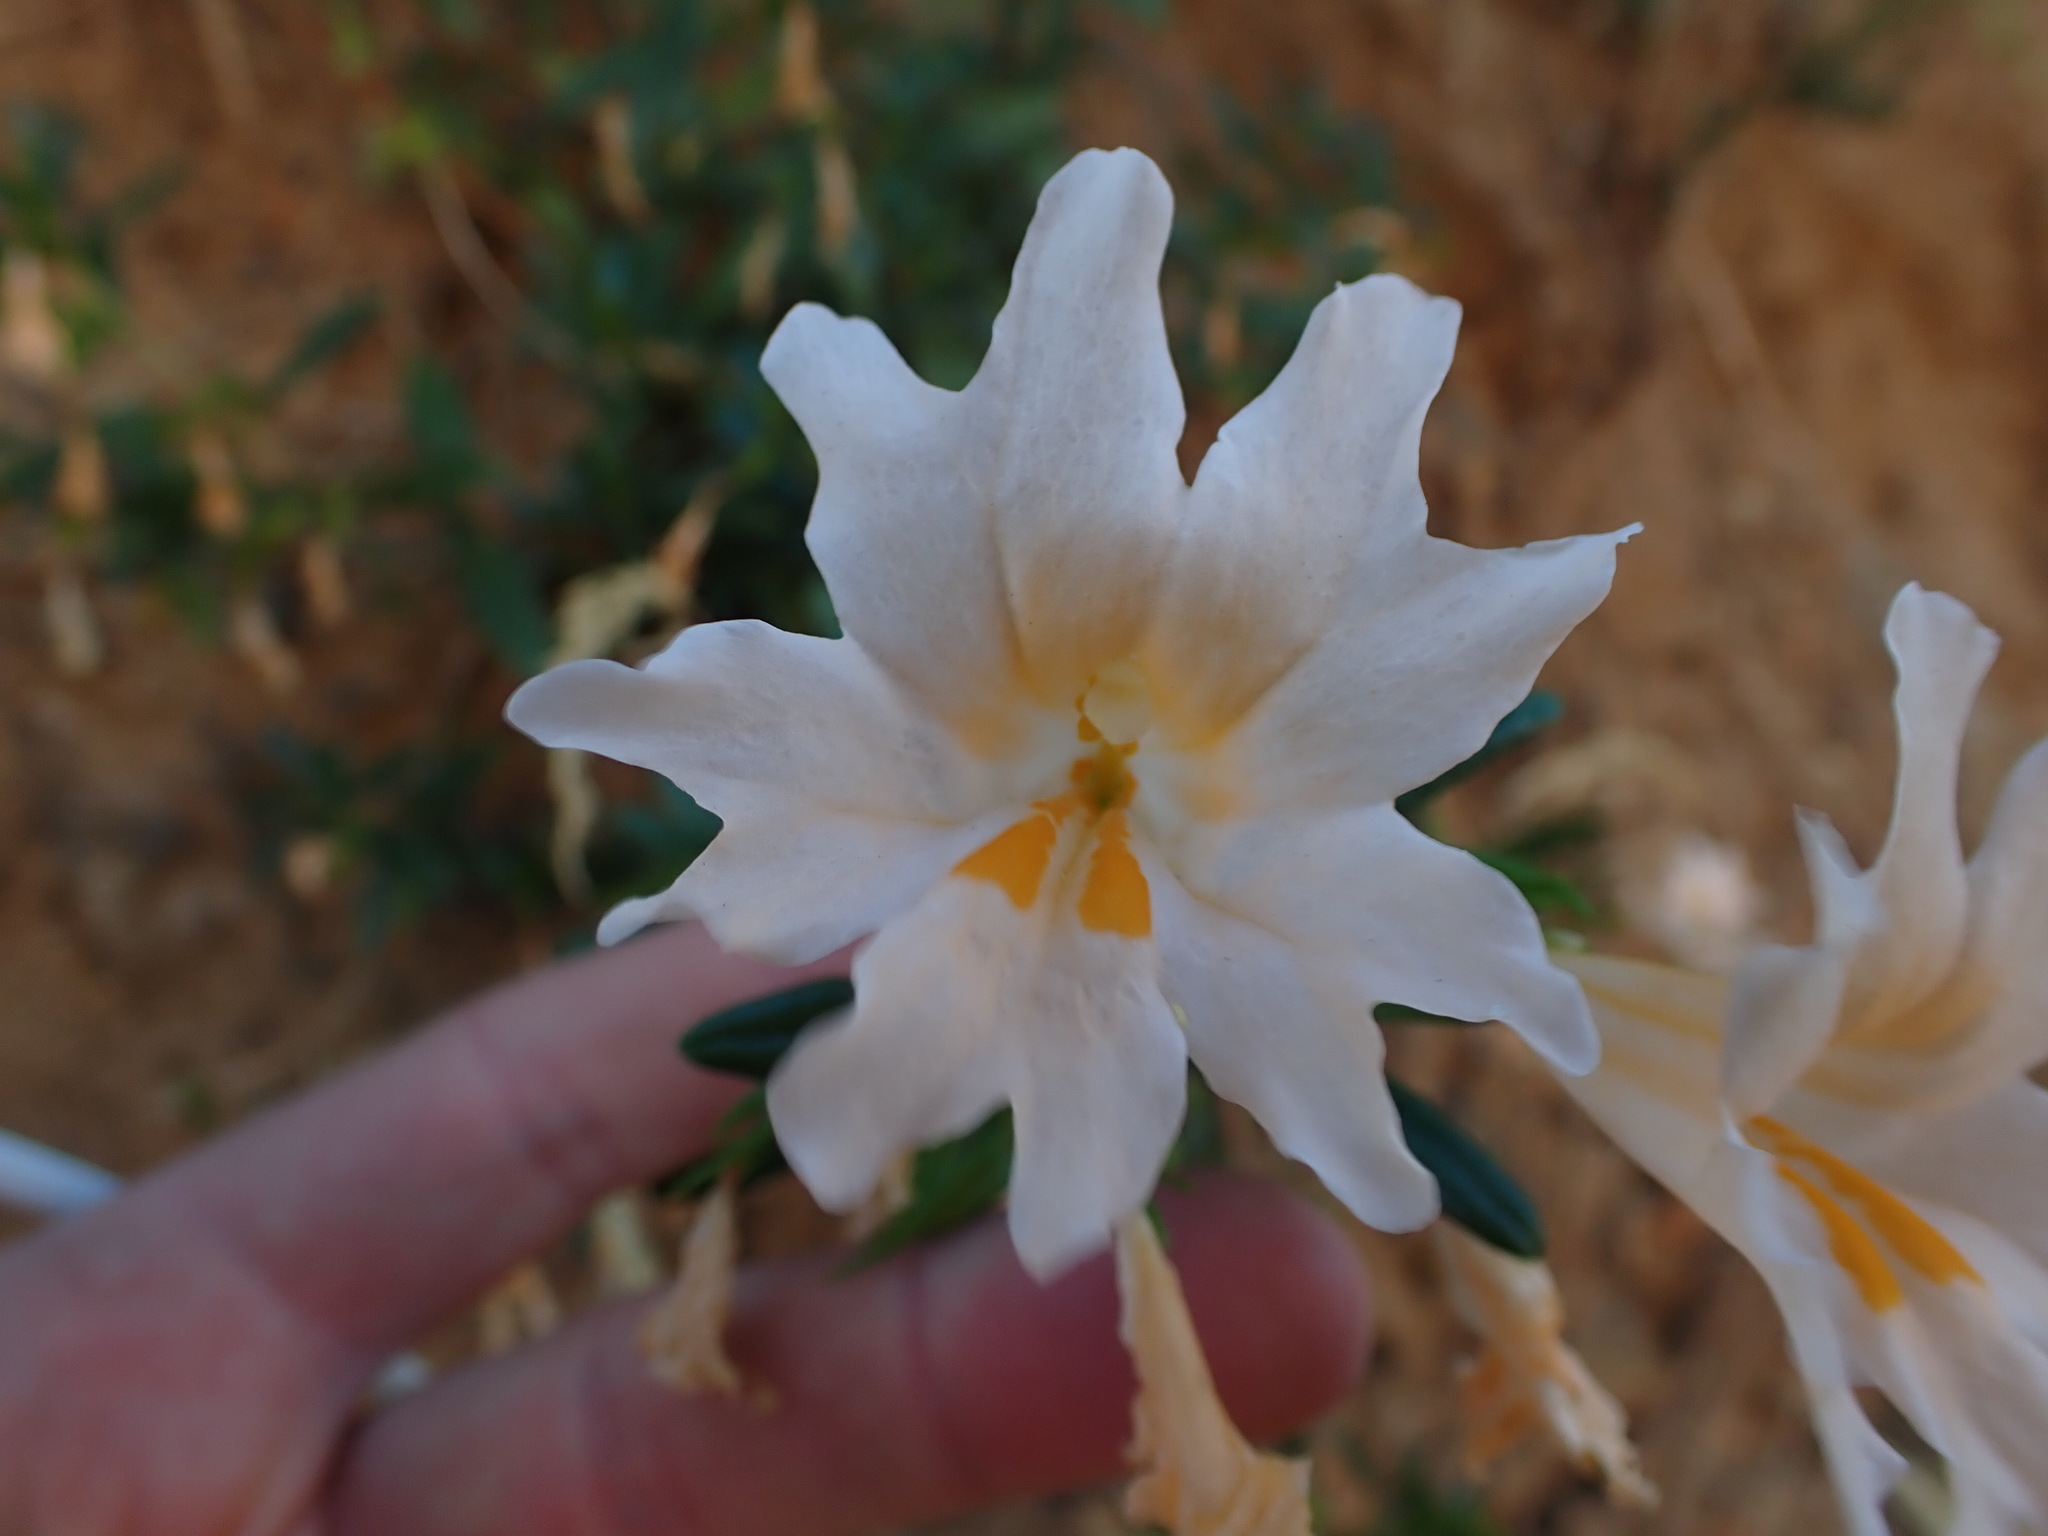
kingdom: Plantae
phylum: Tracheophyta
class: Magnoliopsida
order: Lamiales
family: Phrymaceae
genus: Diplacus
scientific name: Diplacus grandiflorus
